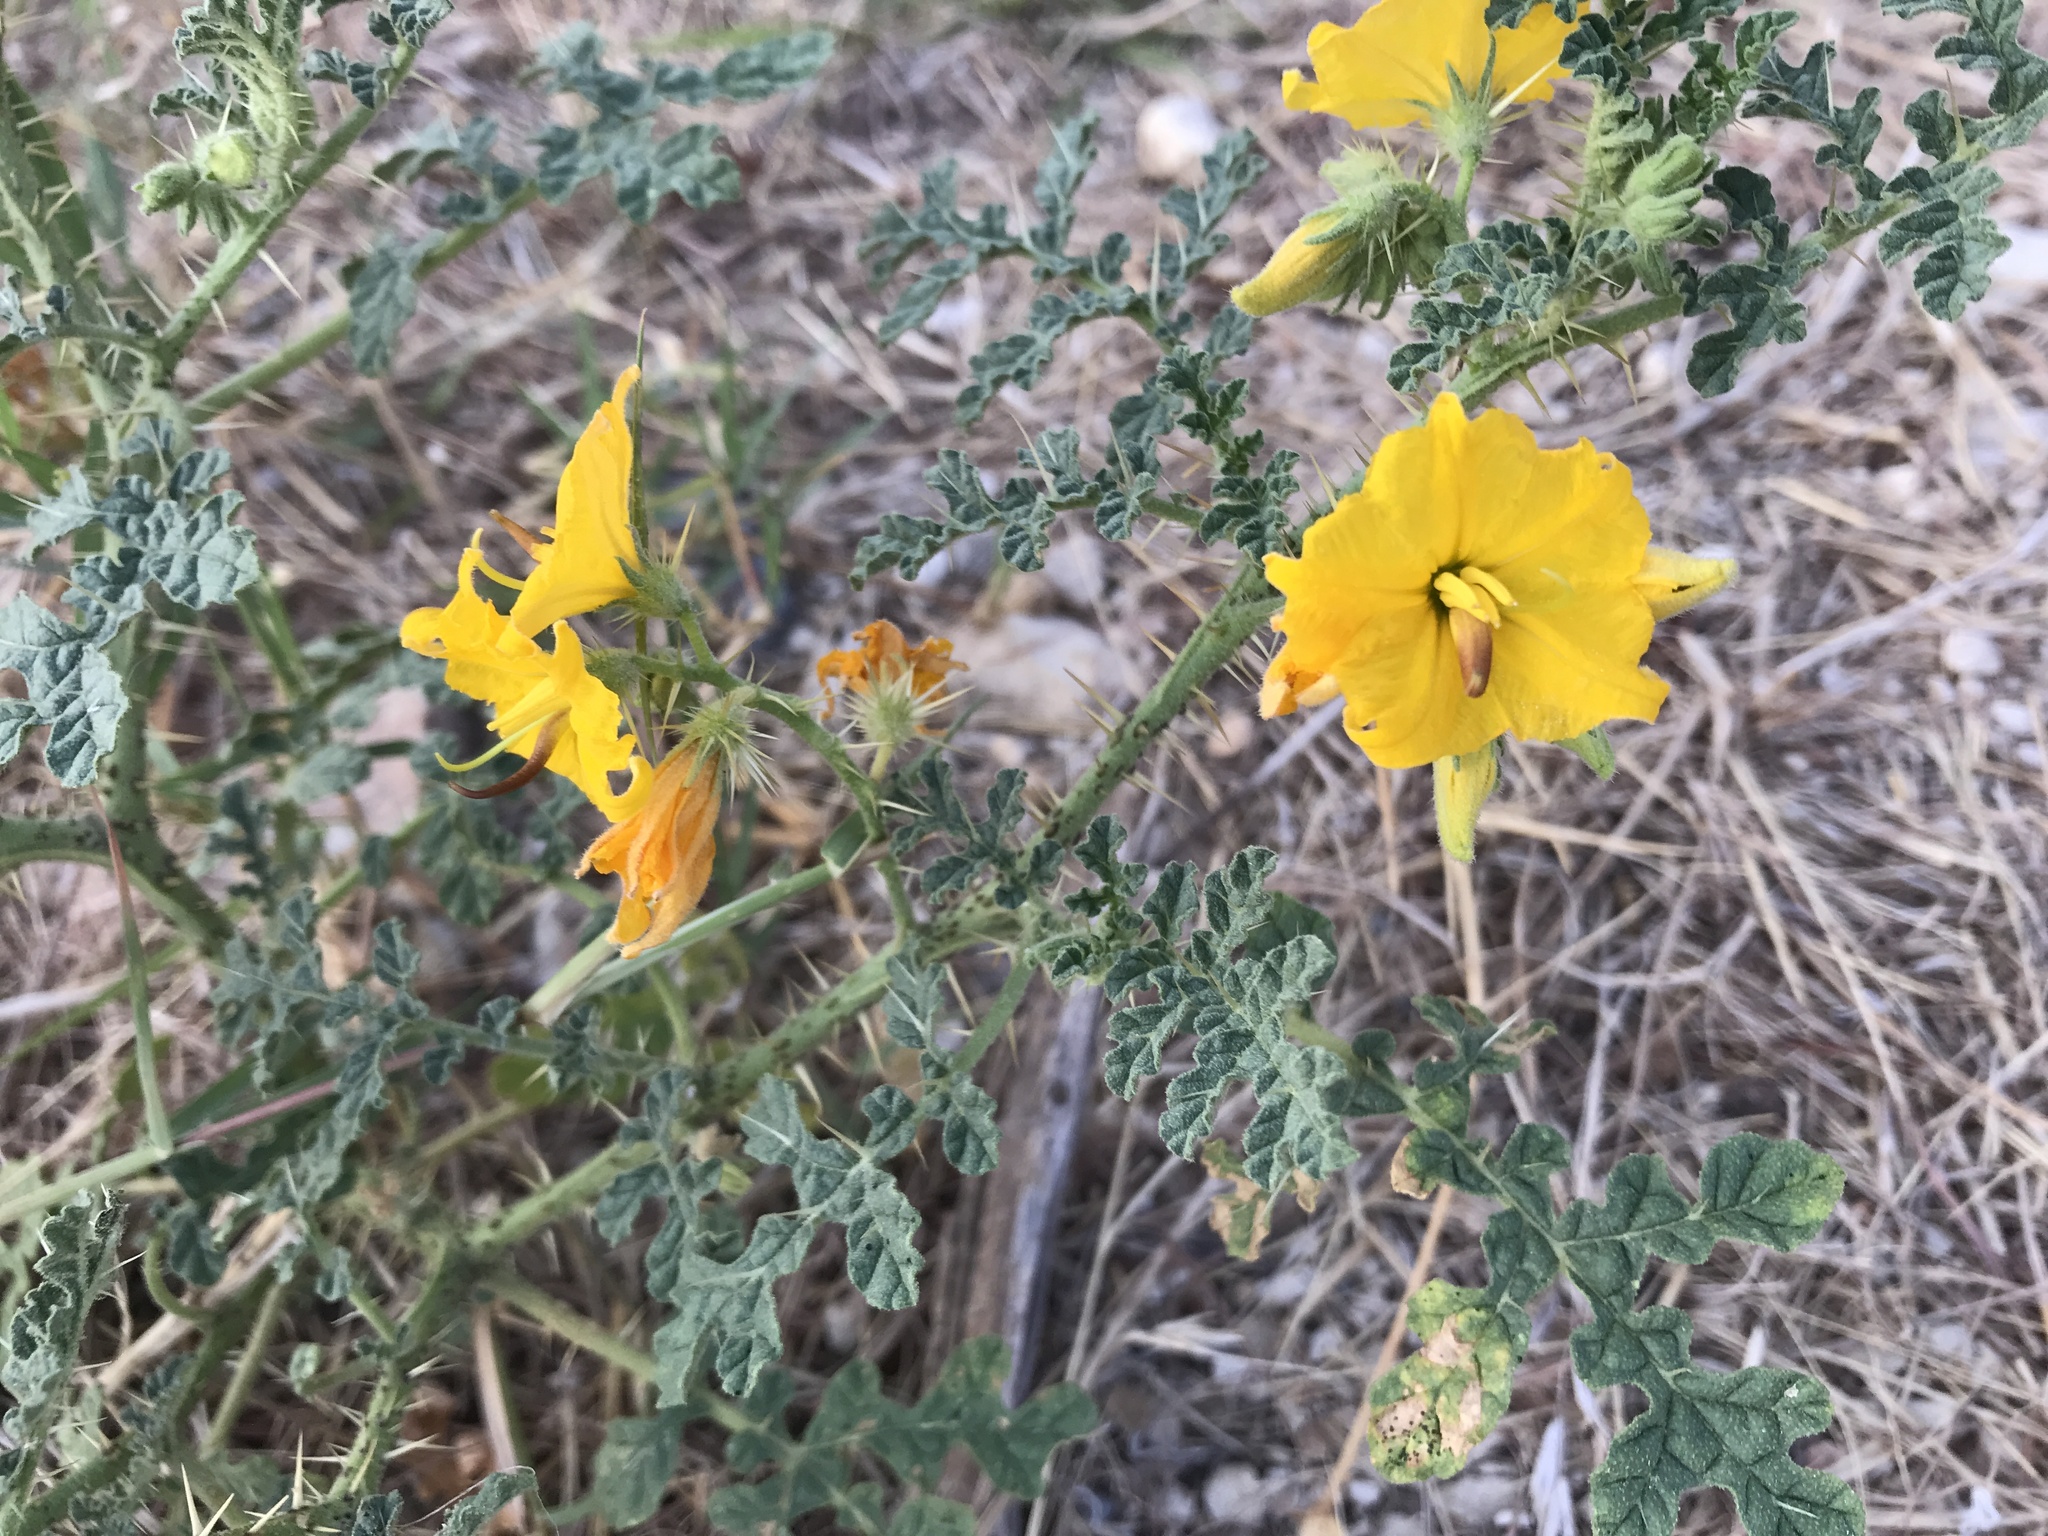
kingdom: Plantae
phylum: Tracheophyta
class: Magnoliopsida
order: Solanales
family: Solanaceae
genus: Solanum
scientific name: Solanum angustifolium
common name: Buffalobur nightshade
